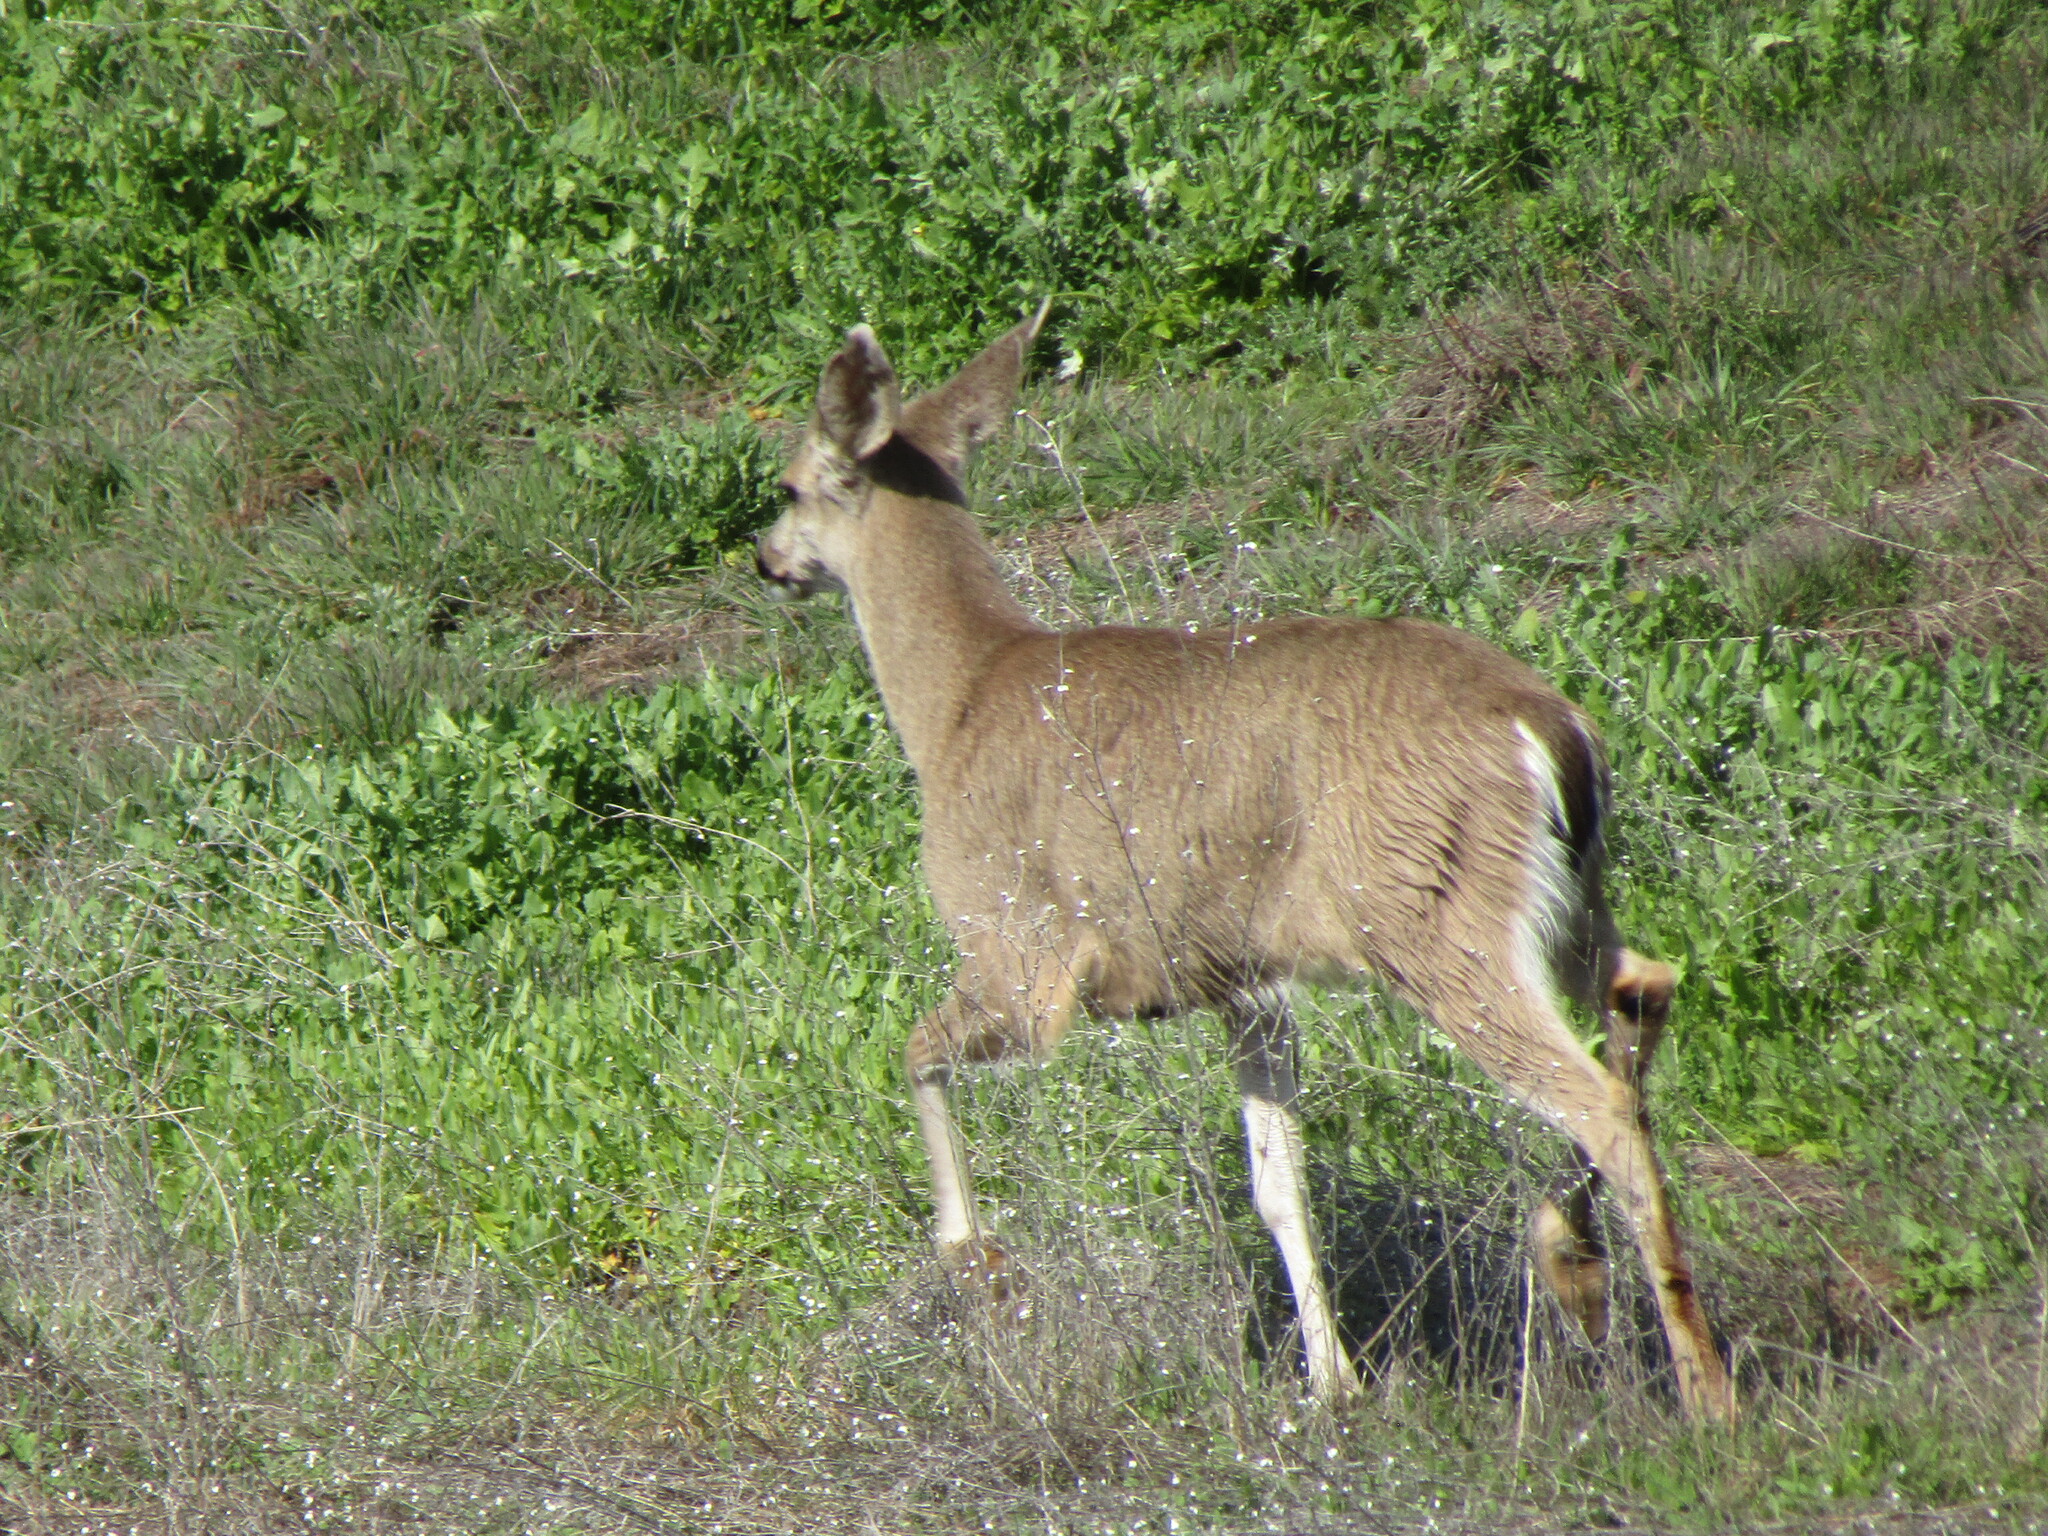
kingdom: Animalia
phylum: Chordata
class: Mammalia
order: Artiodactyla
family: Cervidae
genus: Odocoileus
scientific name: Odocoileus hemionus
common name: Mule deer
